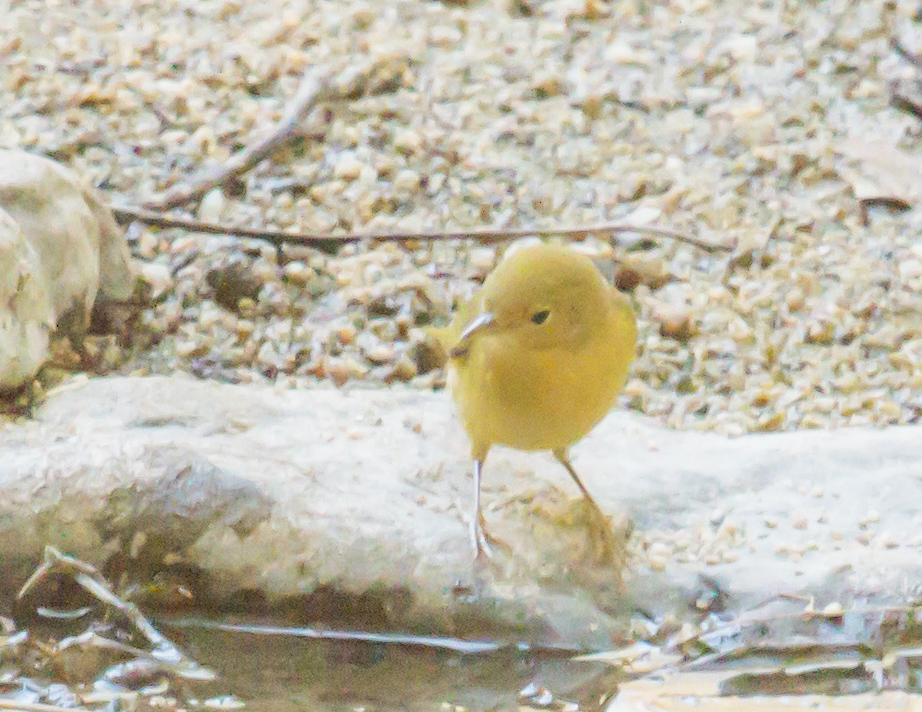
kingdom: Animalia
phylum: Chordata
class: Aves
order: Passeriformes
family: Parulidae
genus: Setophaga
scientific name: Setophaga petechia
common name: Yellow warbler
